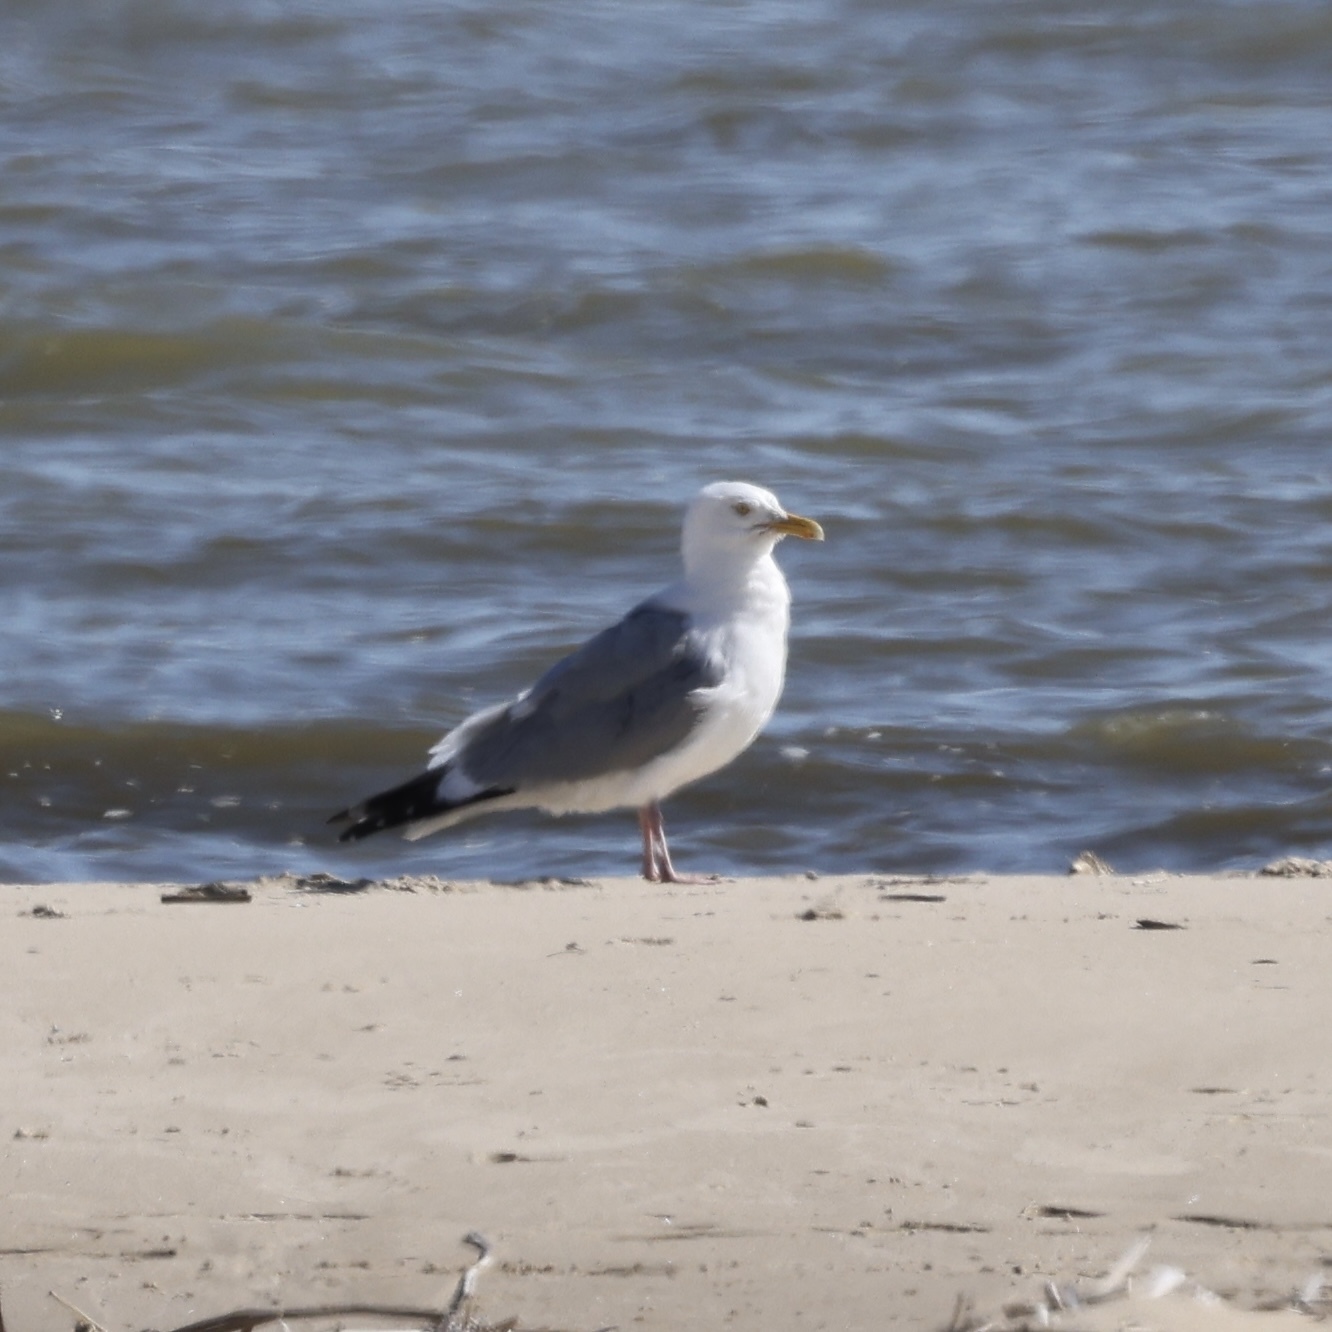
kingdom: Animalia
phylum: Chordata
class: Aves
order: Charadriiformes
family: Laridae
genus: Larus
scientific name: Larus argentatus
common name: Herring gull
